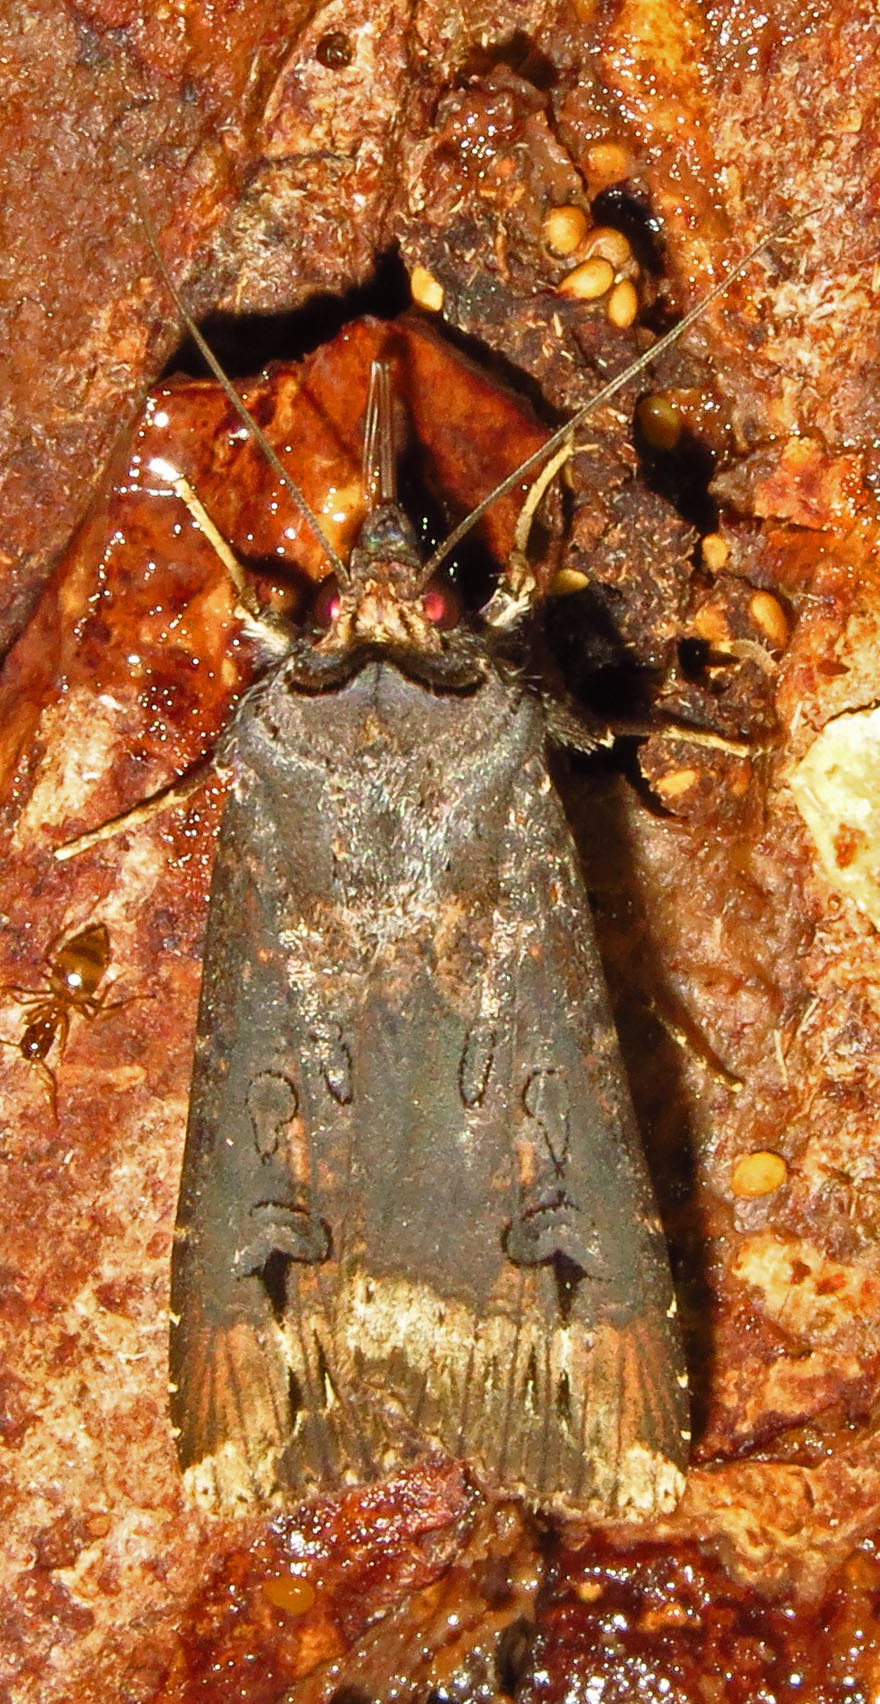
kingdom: Animalia
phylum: Arthropoda
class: Insecta
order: Lepidoptera
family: Noctuidae
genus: Agrotis
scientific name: Agrotis ipsilon
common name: Dark sword-grass
